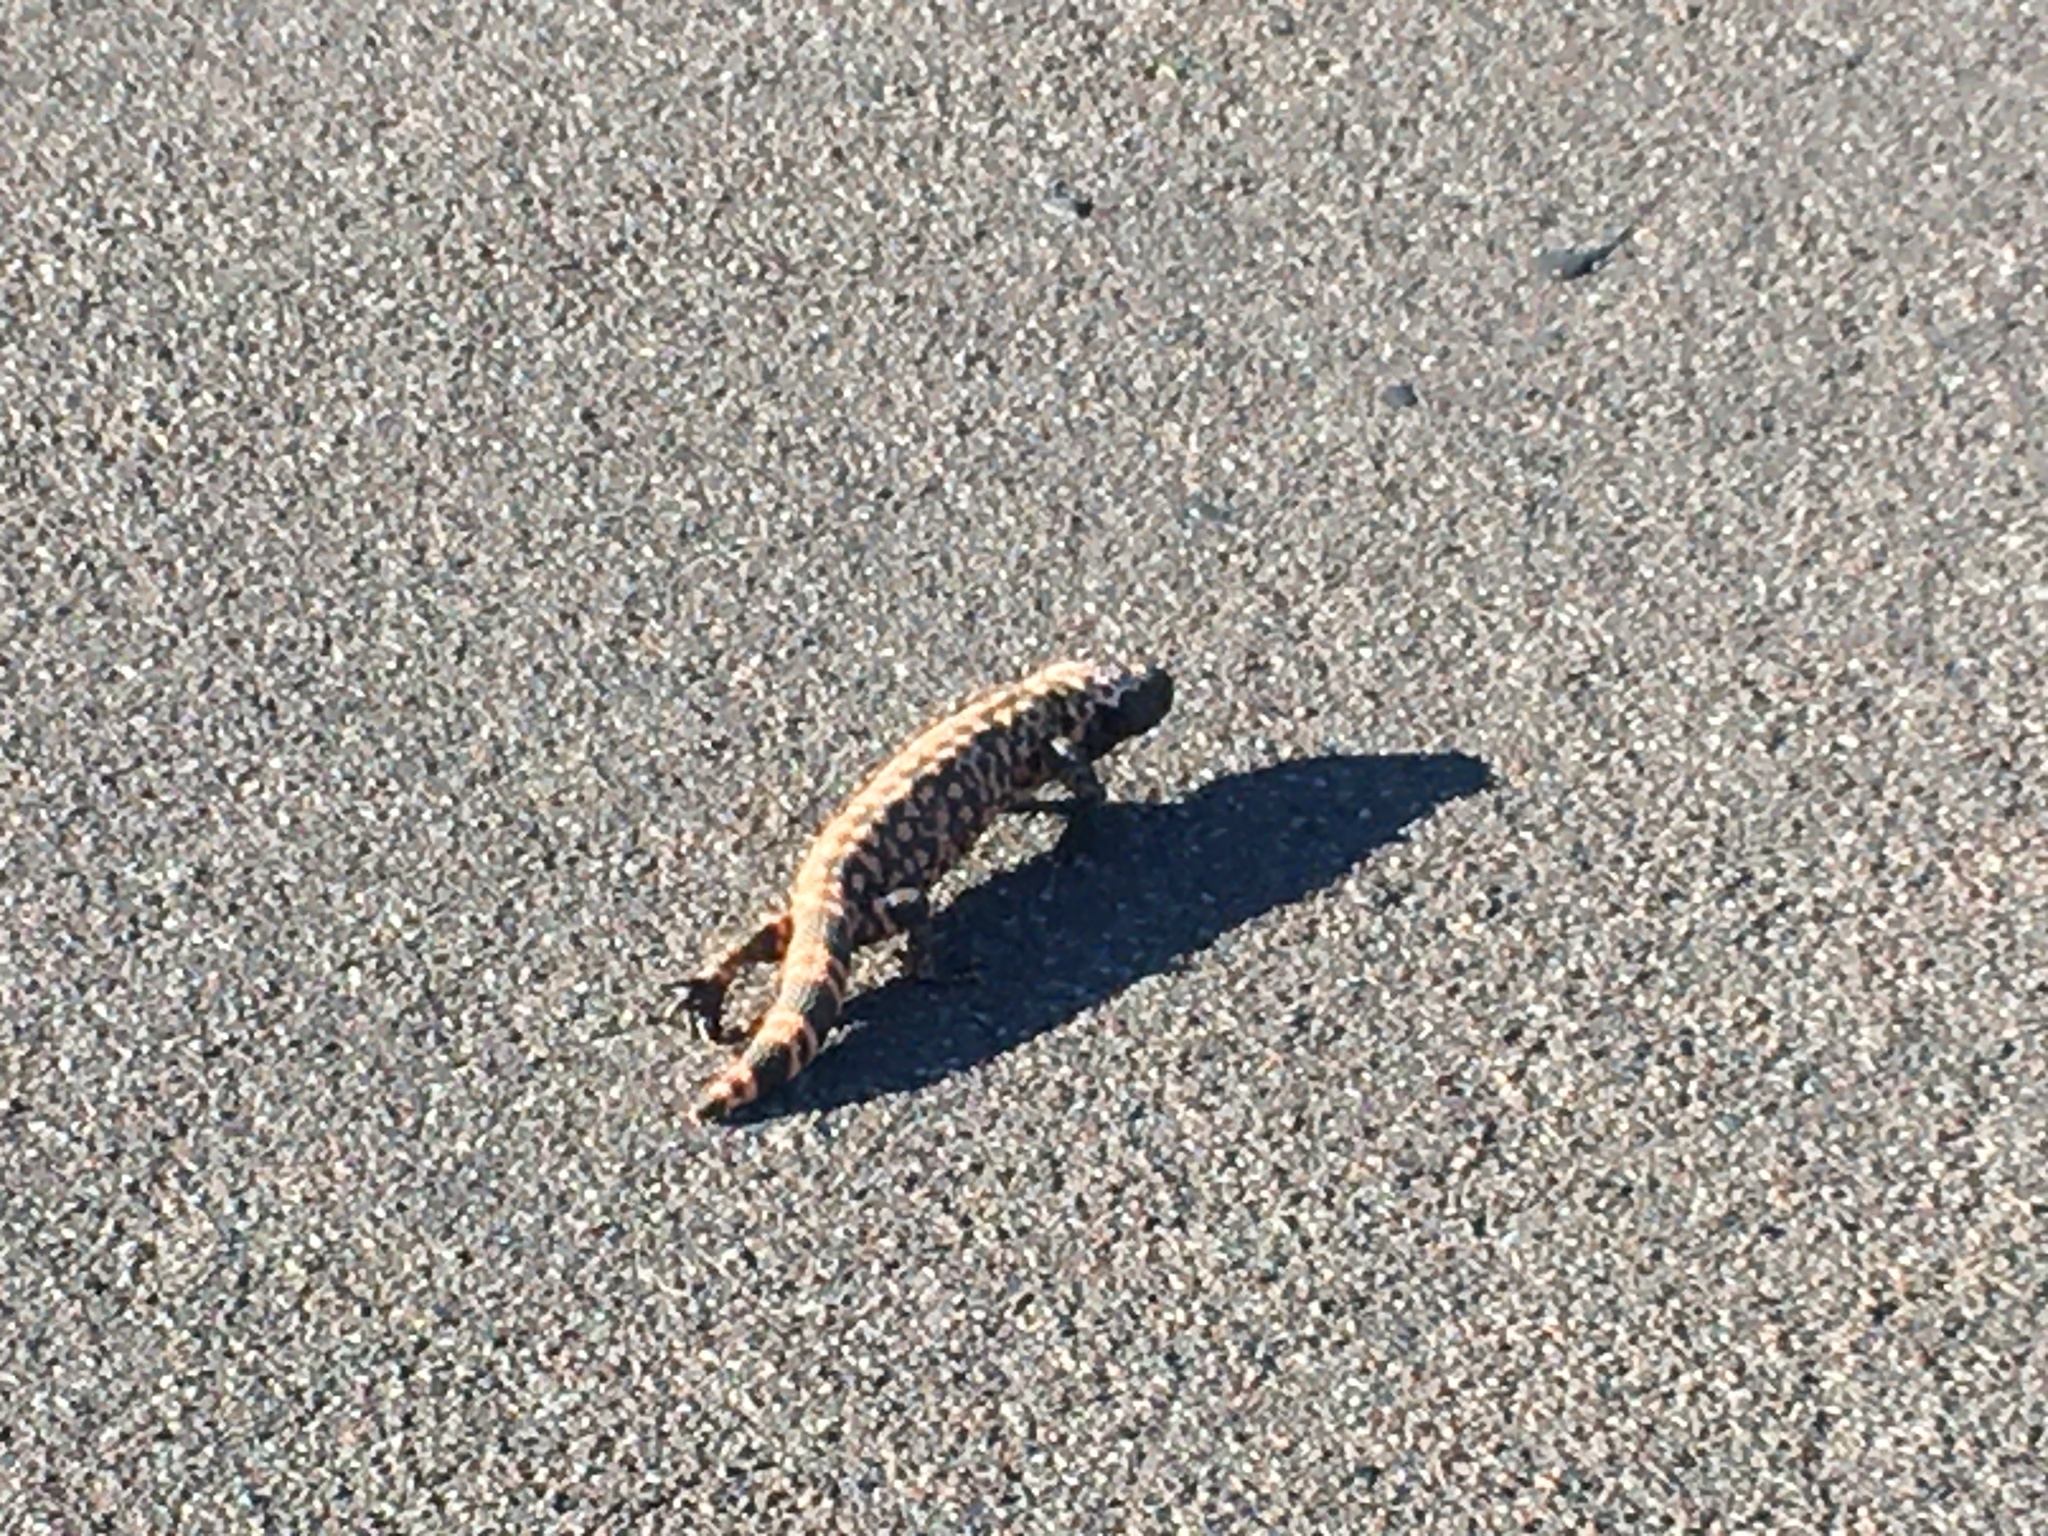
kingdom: Animalia
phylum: Chordata
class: Squamata
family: Helodermatidae
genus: Heloderma
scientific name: Heloderma suspectum
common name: Gila monster
